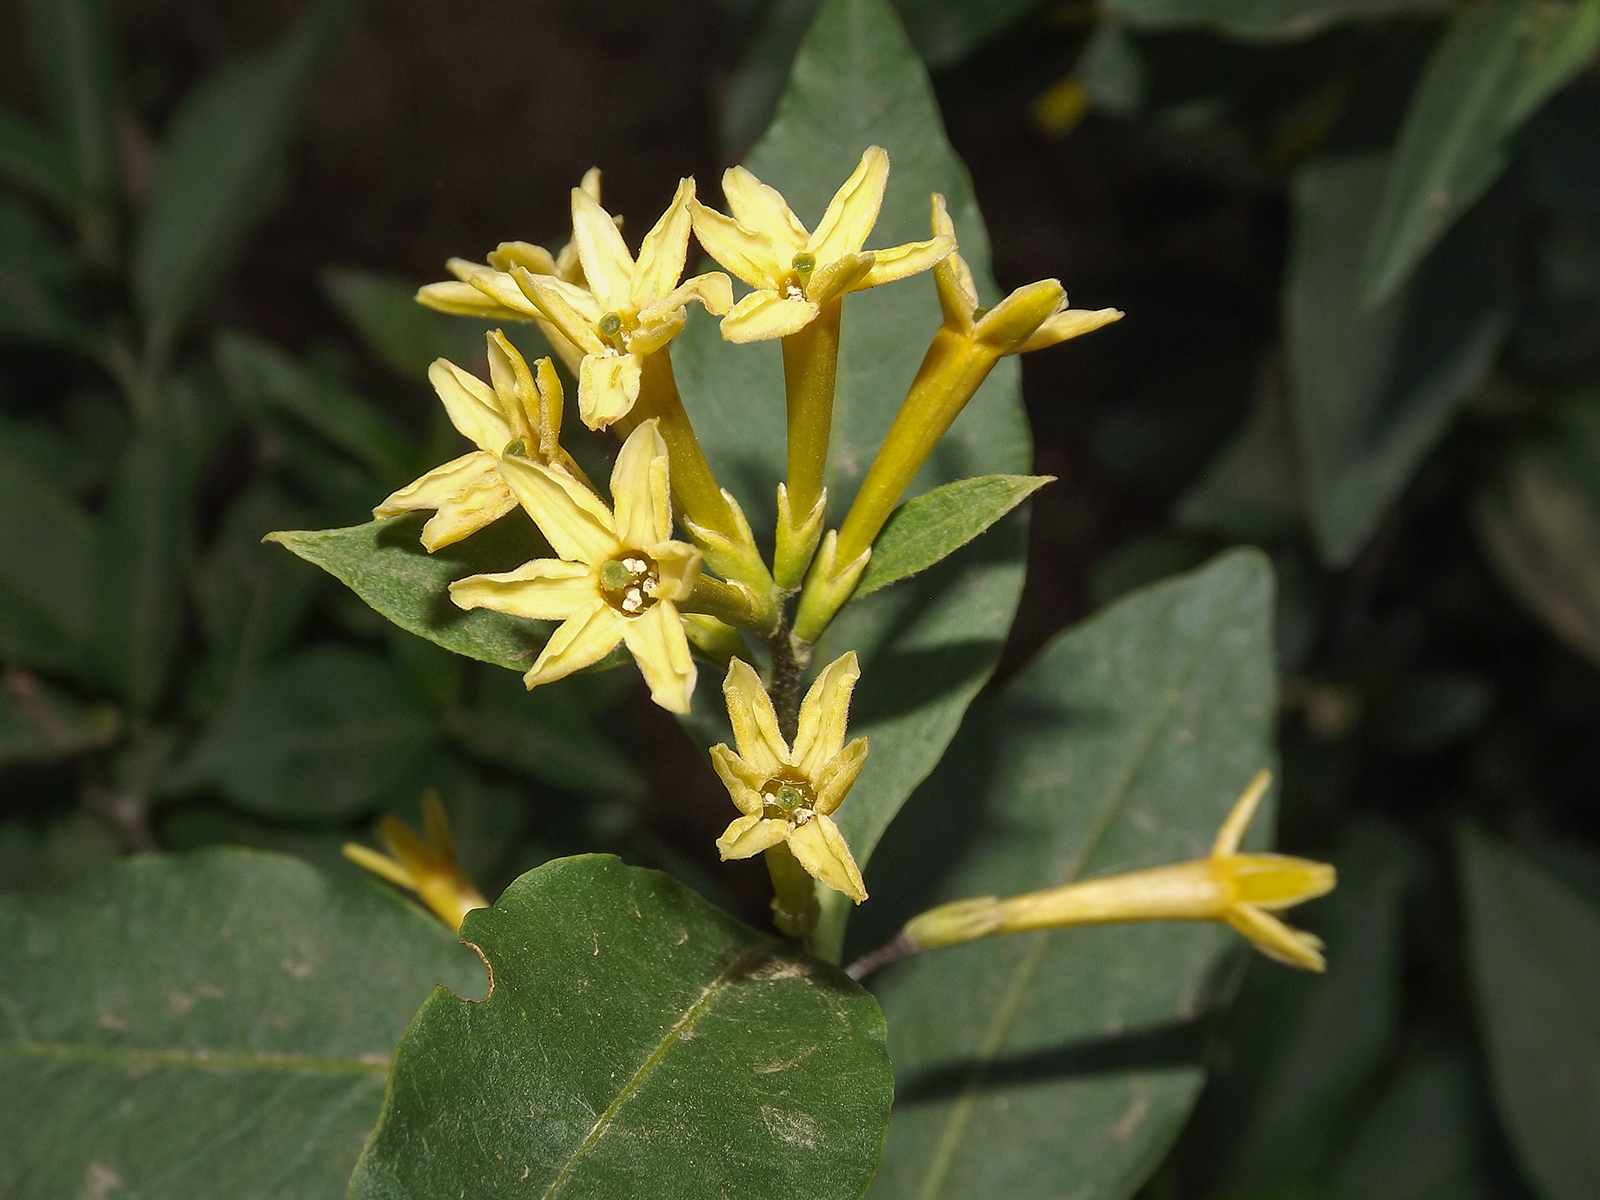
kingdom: Plantae
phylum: Tracheophyta
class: Magnoliopsida
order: Solanales
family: Solanaceae
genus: Cestrum
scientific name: Cestrum parqui
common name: Chilean cestrum
